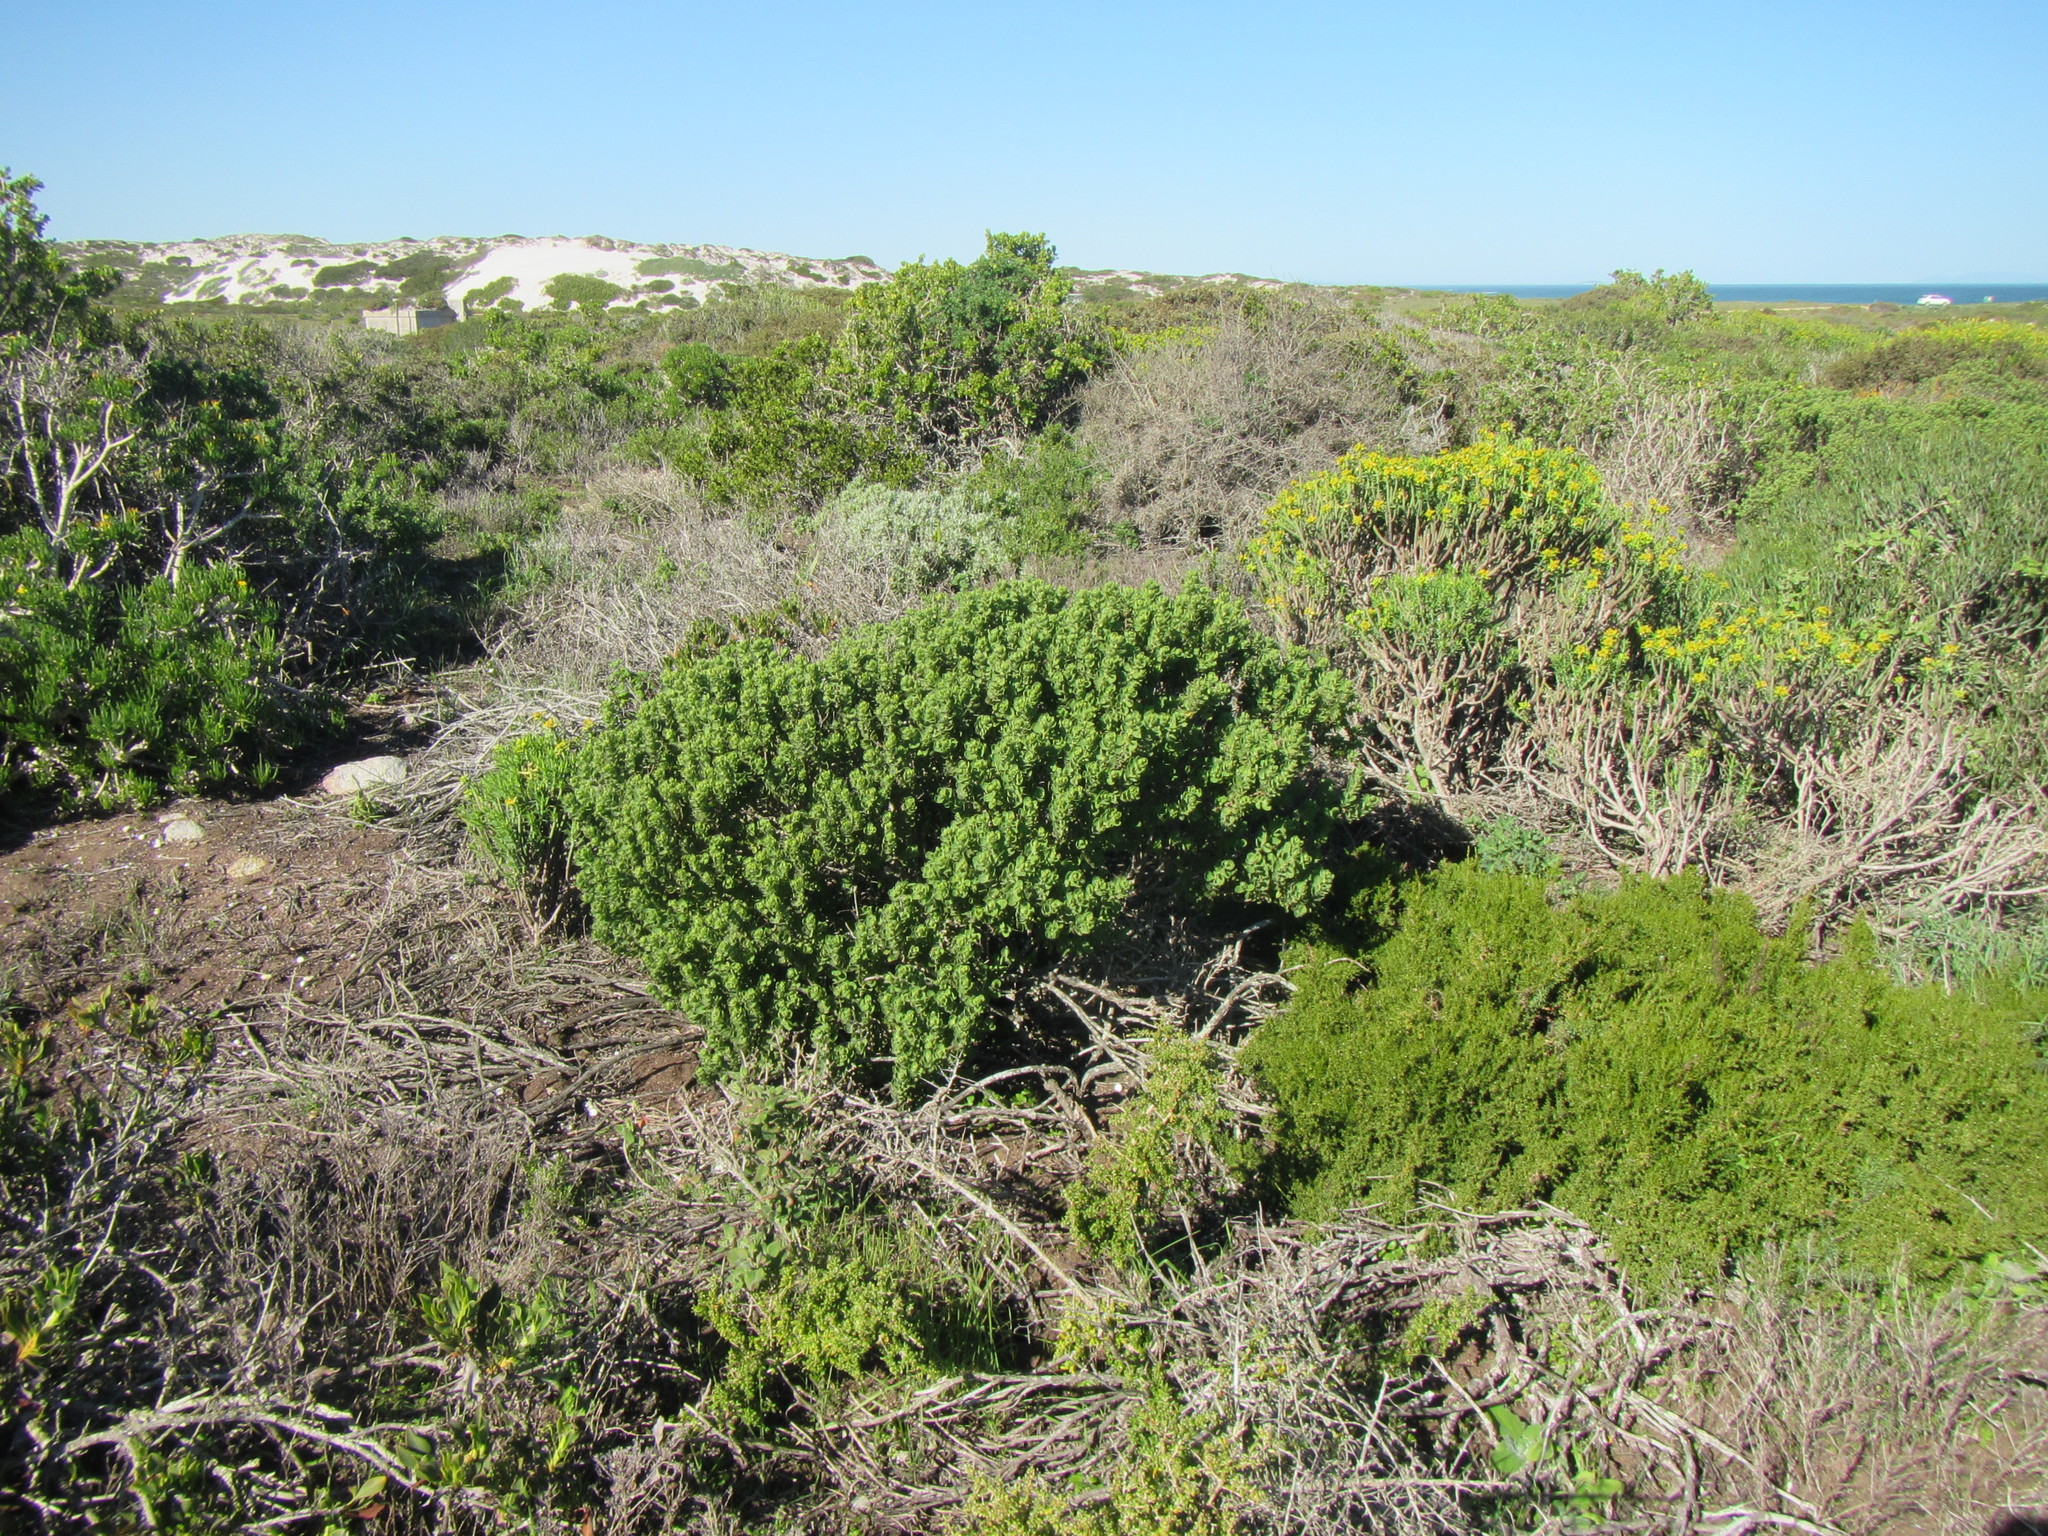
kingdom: Plantae
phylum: Tracheophyta
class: Magnoliopsida
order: Asterales
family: Asteraceae
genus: Pteronia
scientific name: Pteronia divaricata
